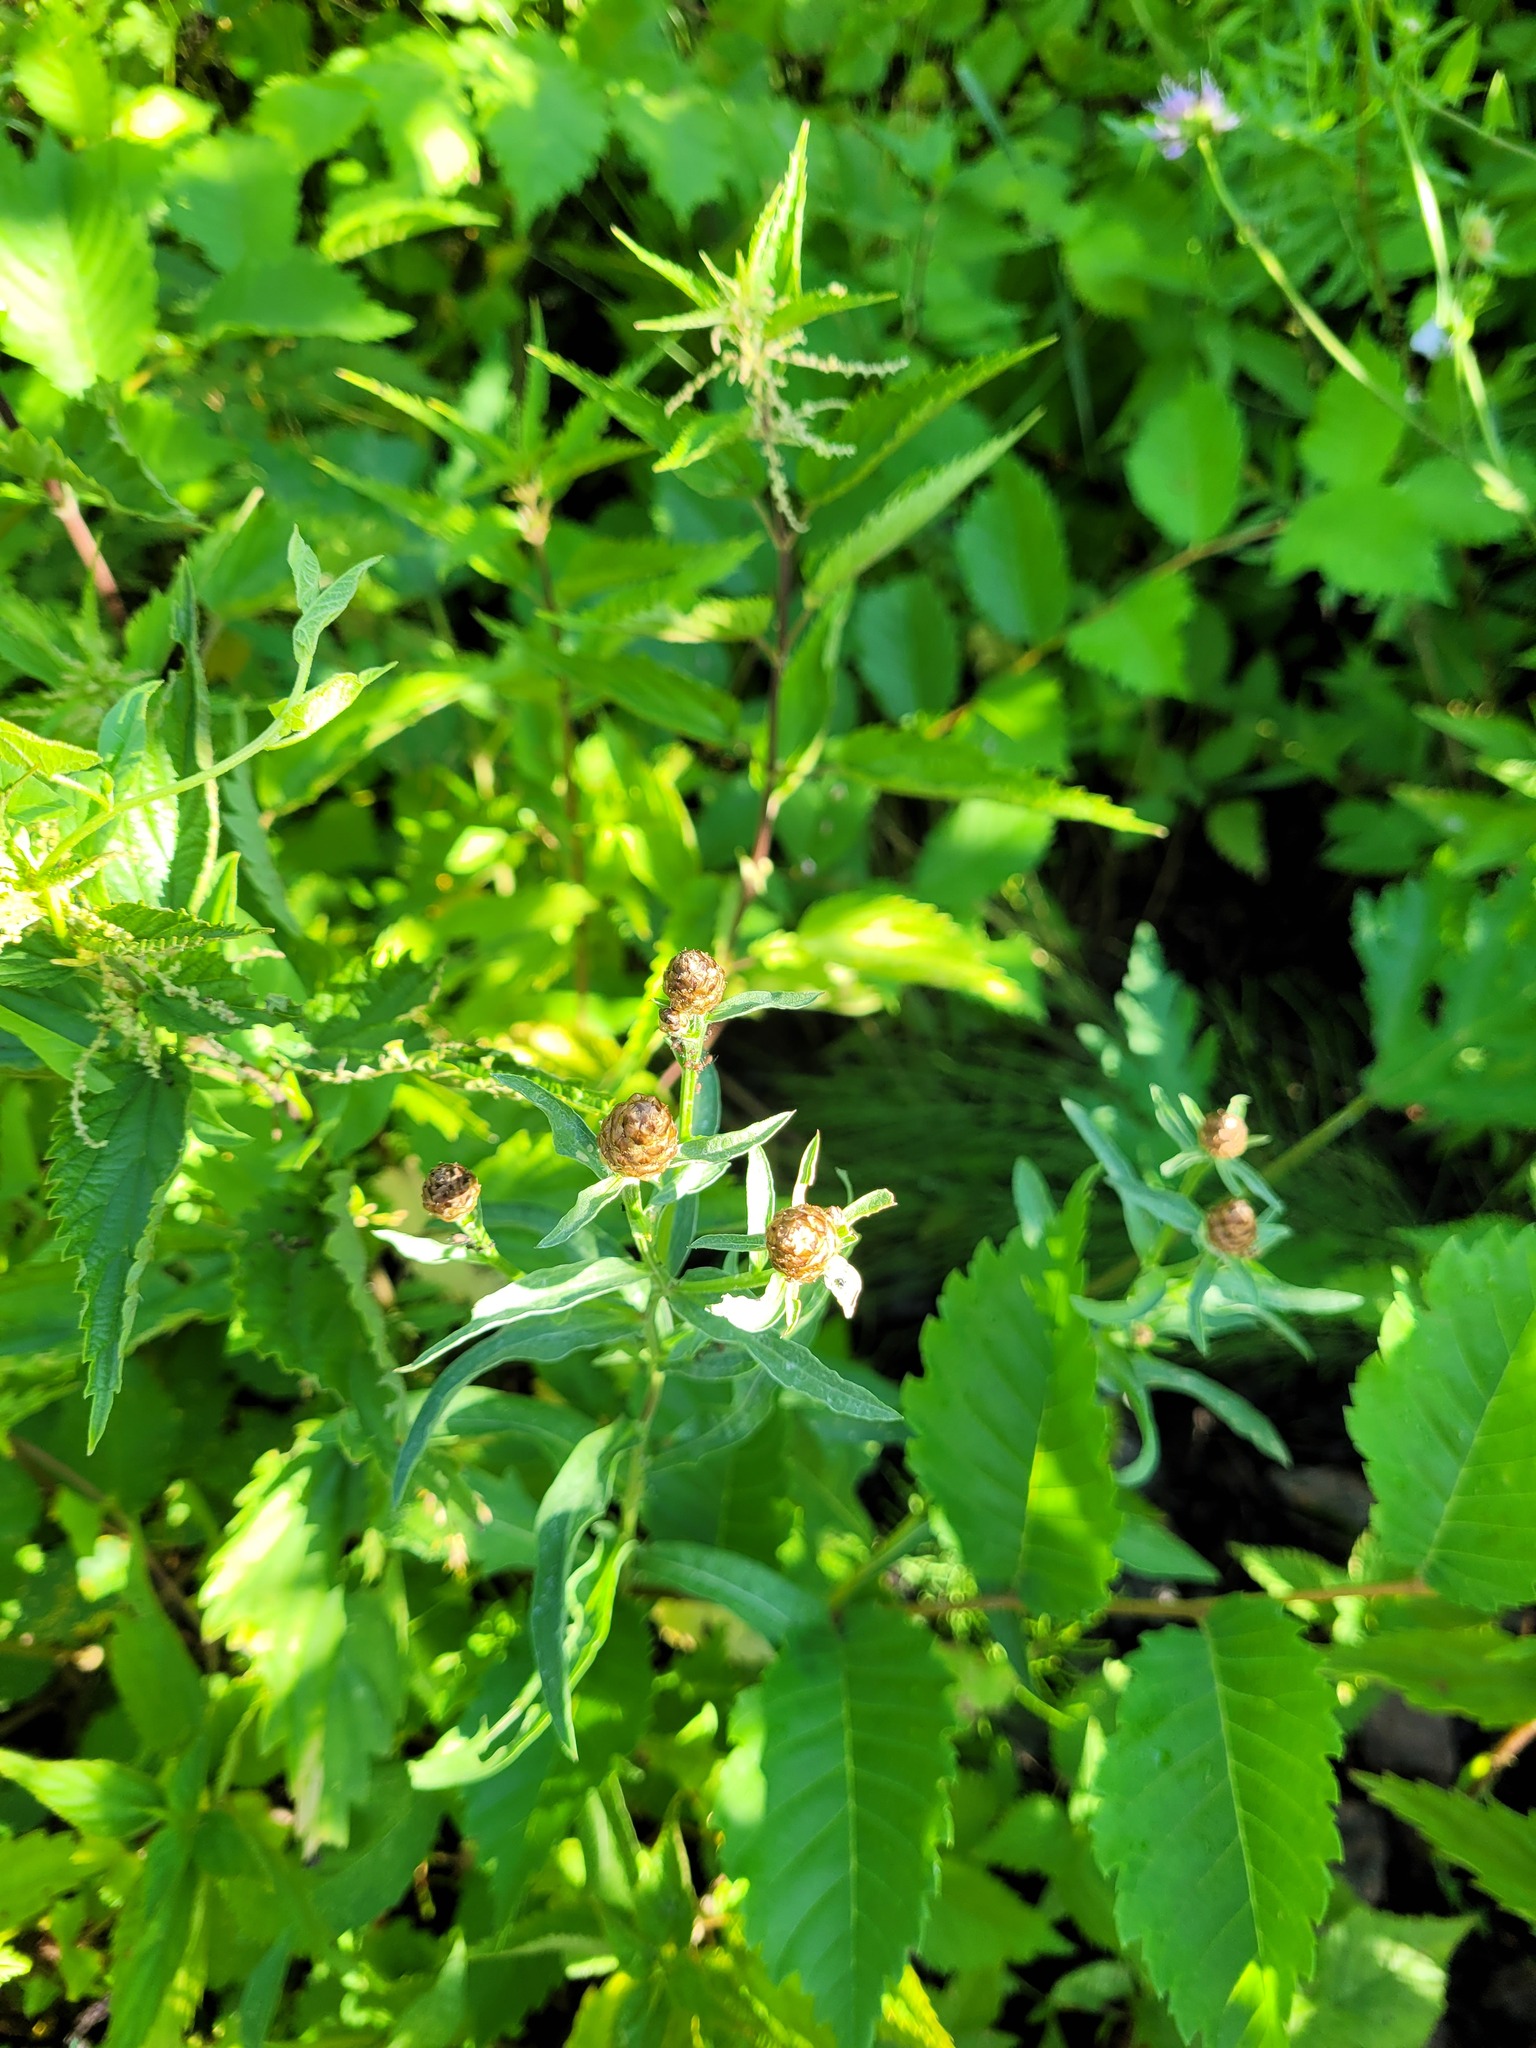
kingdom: Plantae
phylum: Tracheophyta
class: Magnoliopsida
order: Asterales
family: Asteraceae
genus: Centaurea
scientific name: Centaurea jacea
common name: Brown knapweed
